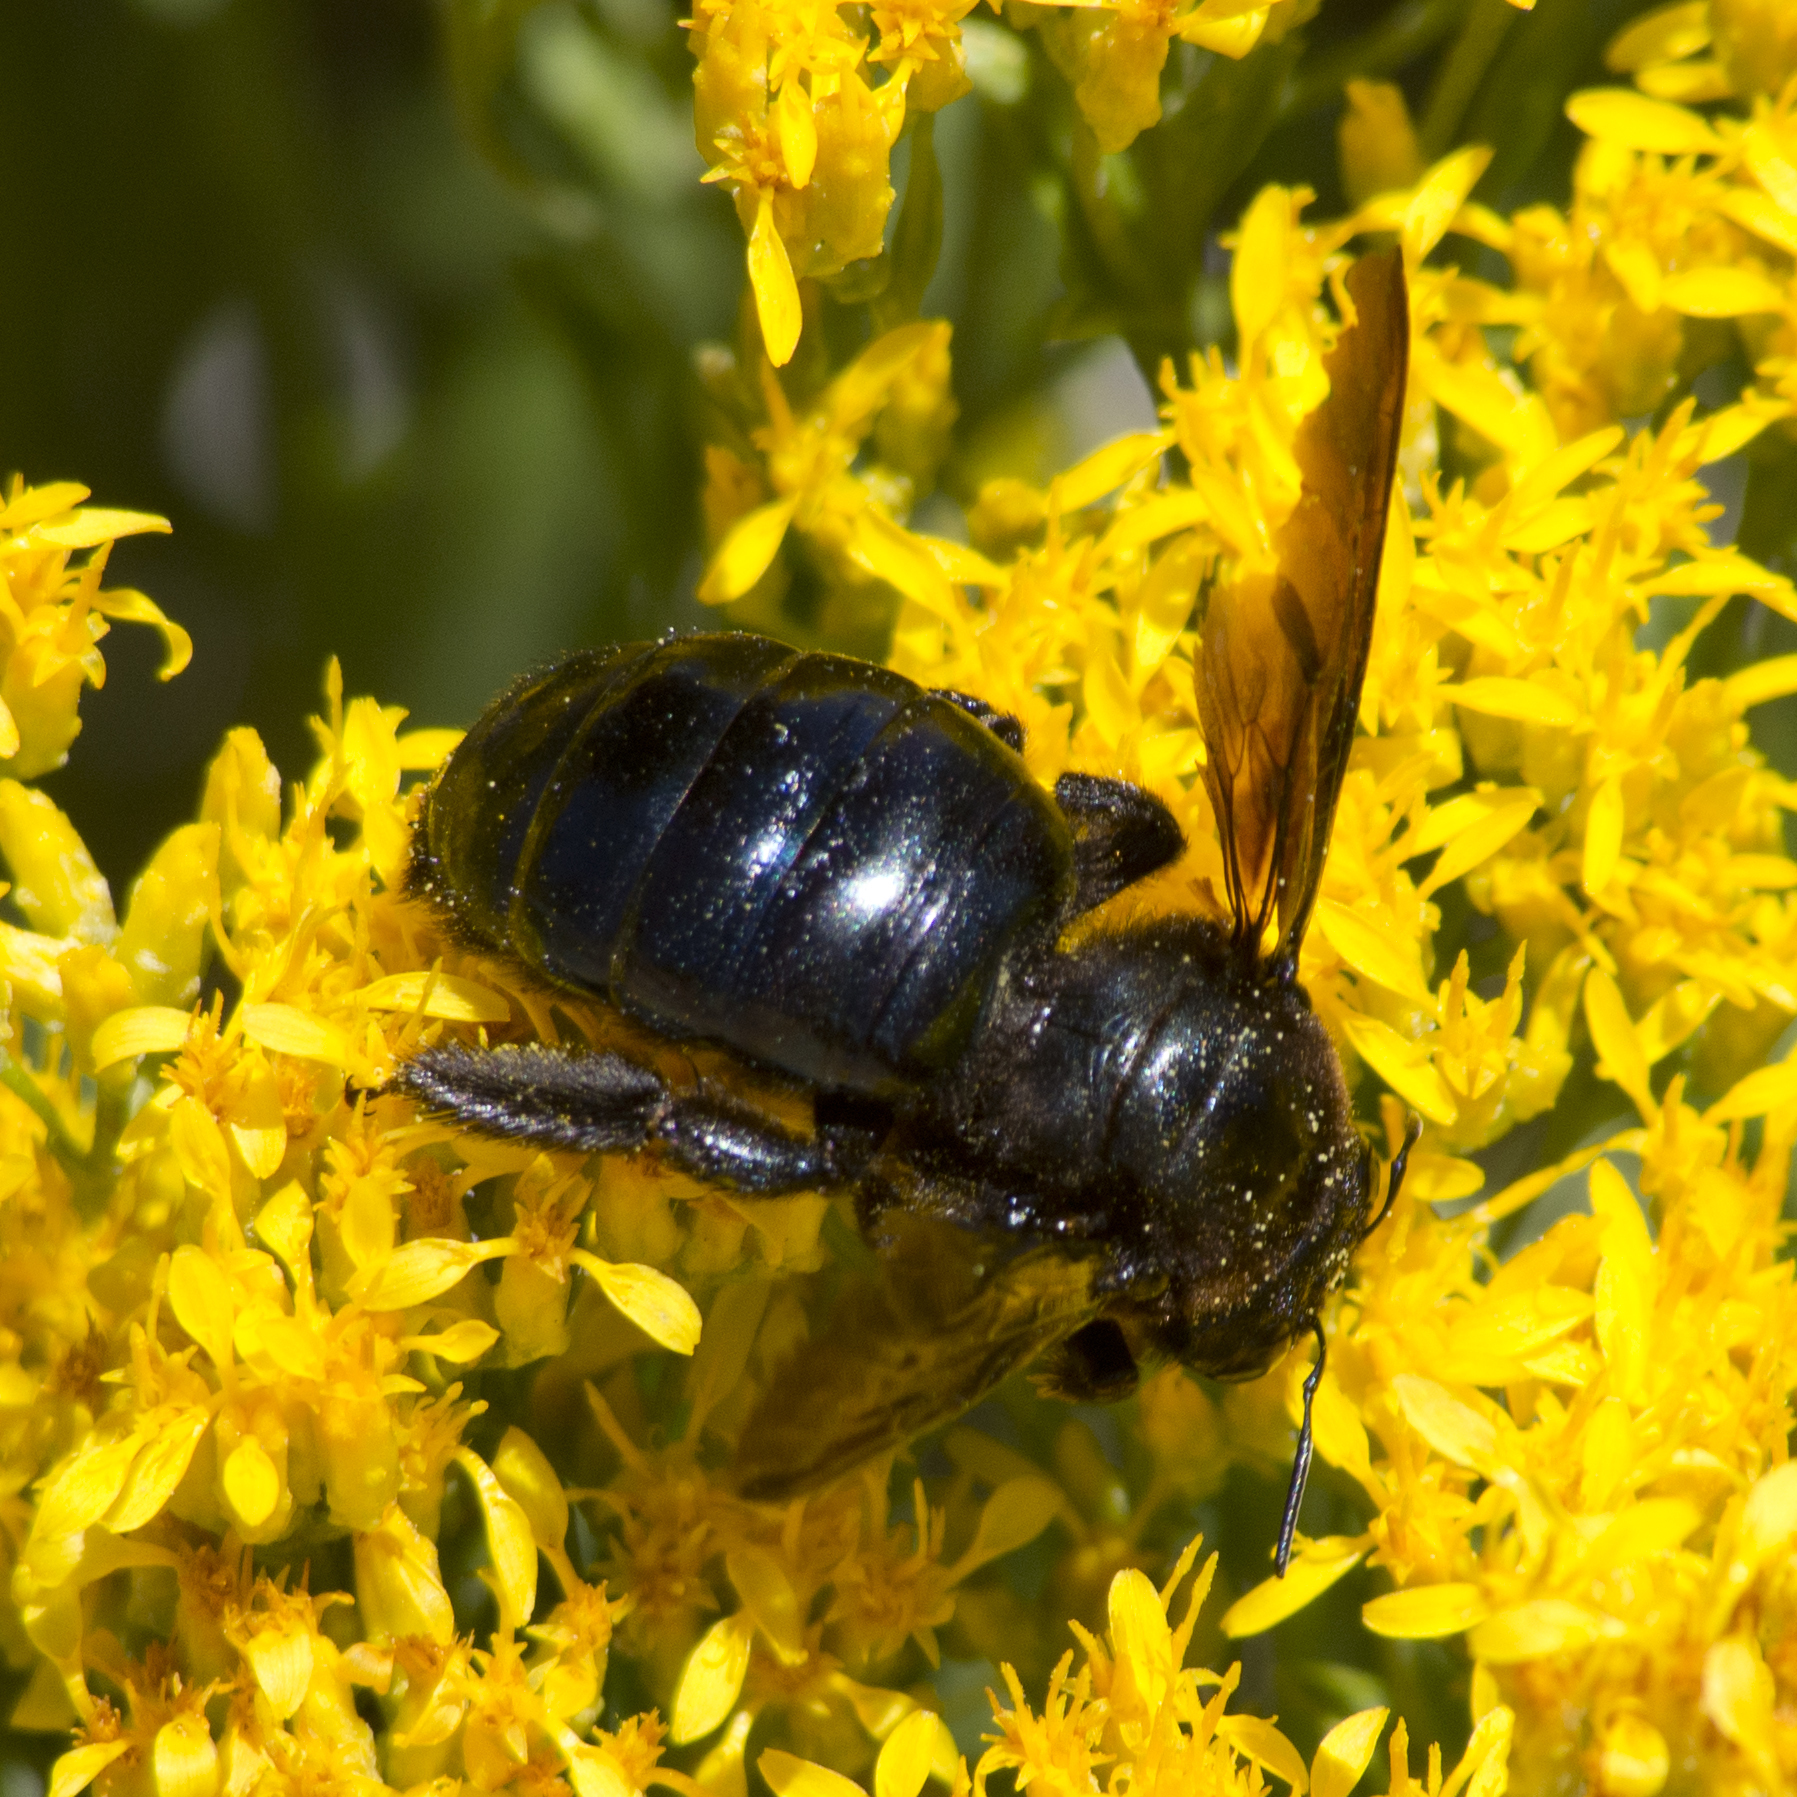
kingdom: Animalia
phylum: Arthropoda
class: Insecta
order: Hymenoptera
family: Apidae
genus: Xylocopa
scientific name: Xylocopa californica
